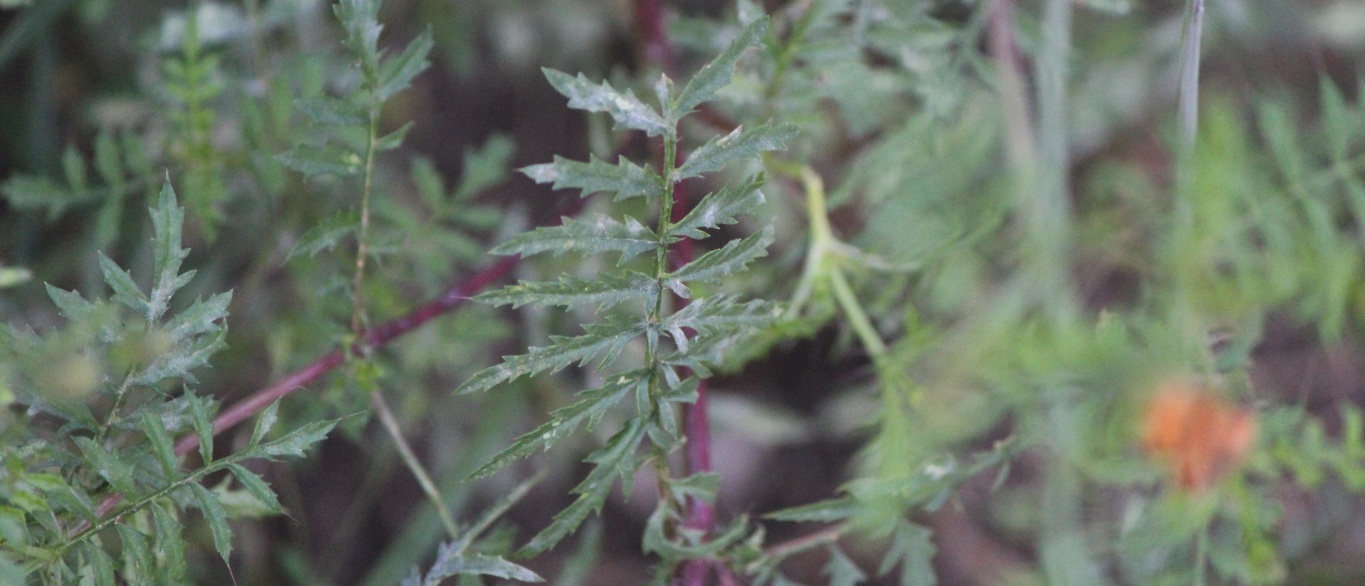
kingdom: Plantae
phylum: Tracheophyta
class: Magnoliopsida
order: Asterales
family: Asteraceae
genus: Tagetes
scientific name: Tagetes lunulata
